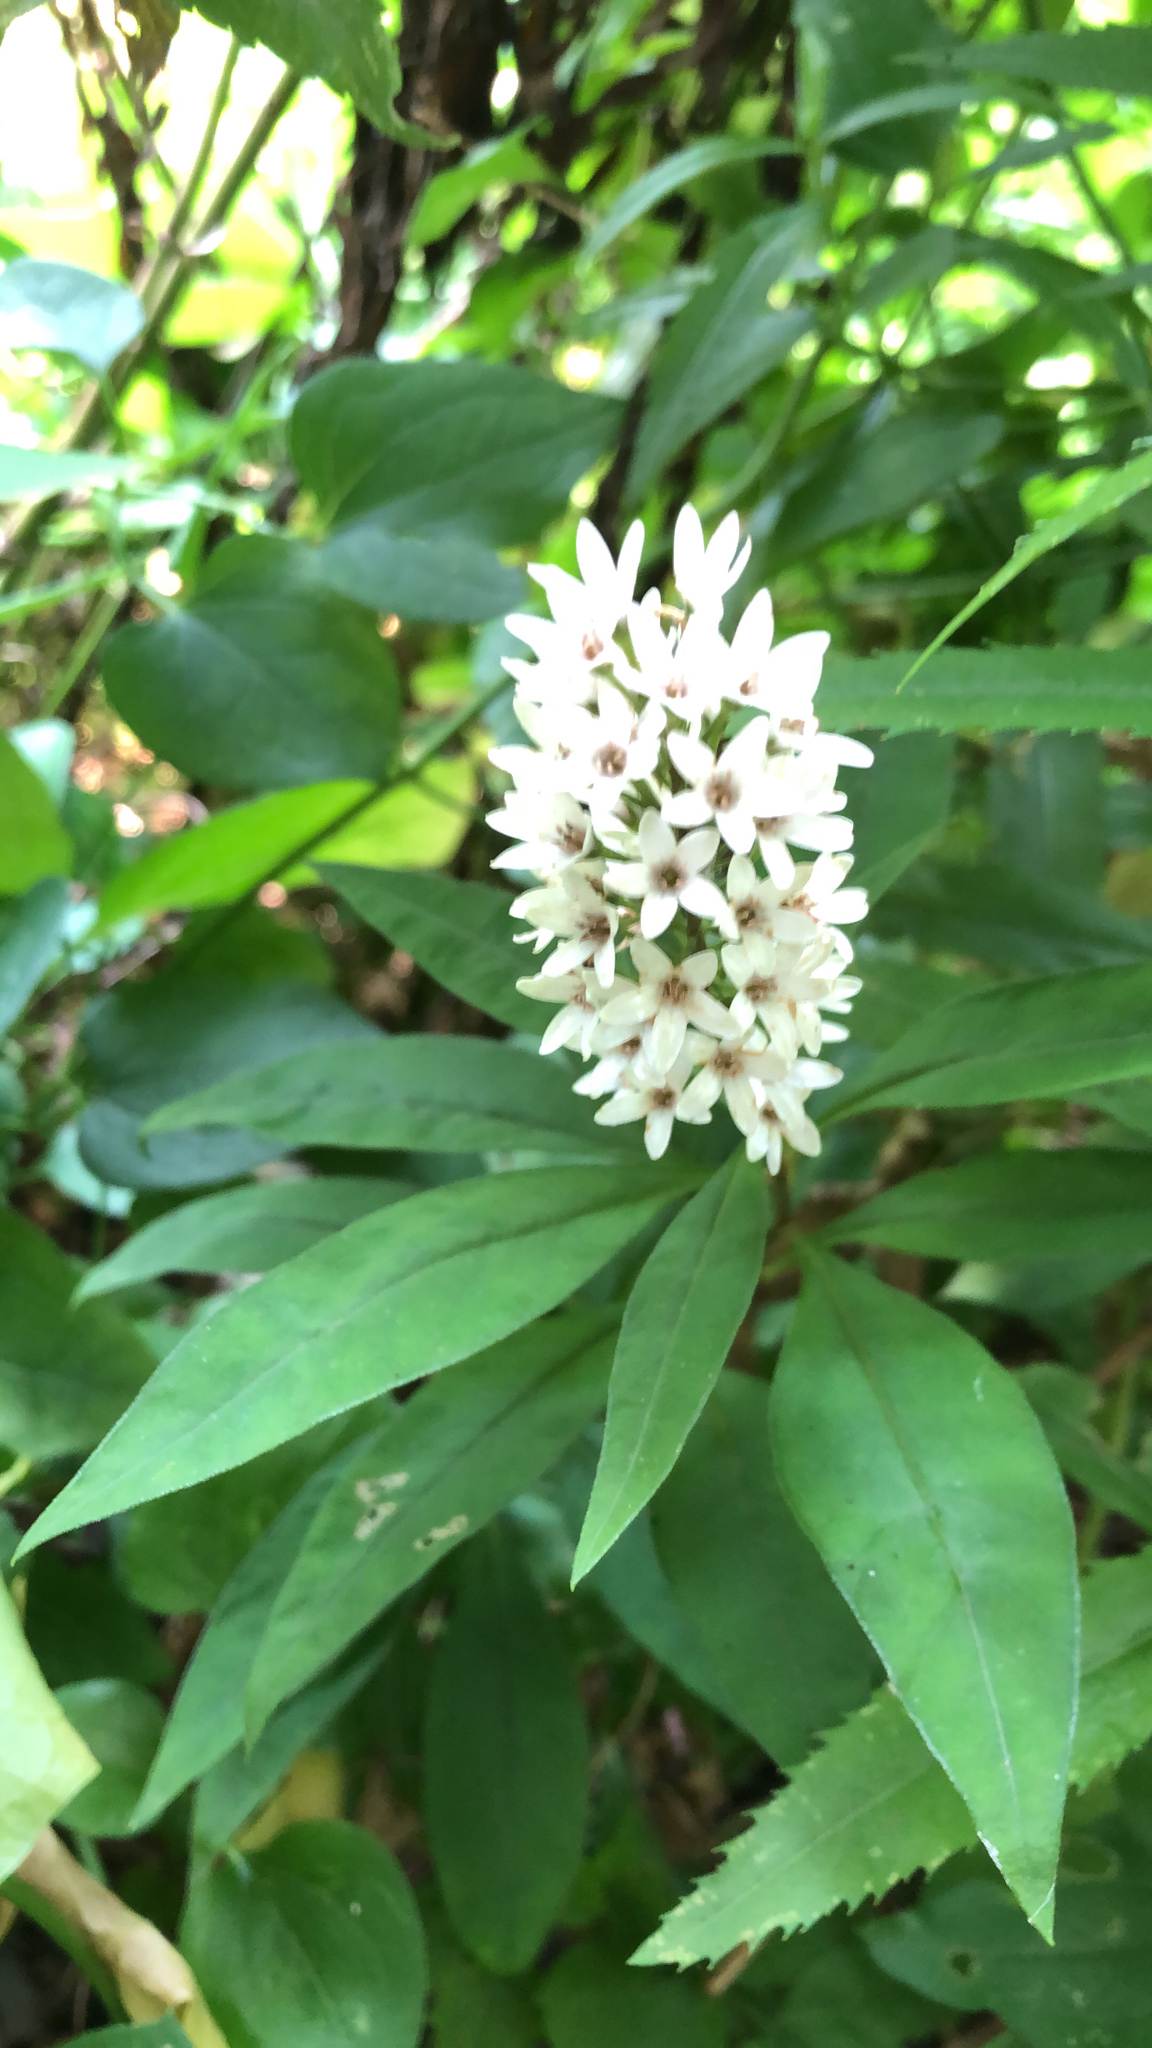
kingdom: Plantae
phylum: Tracheophyta
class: Magnoliopsida
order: Ericales
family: Primulaceae
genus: Lysimachia
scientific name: Lysimachia clethroides
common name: Gooseneck loosestrife
